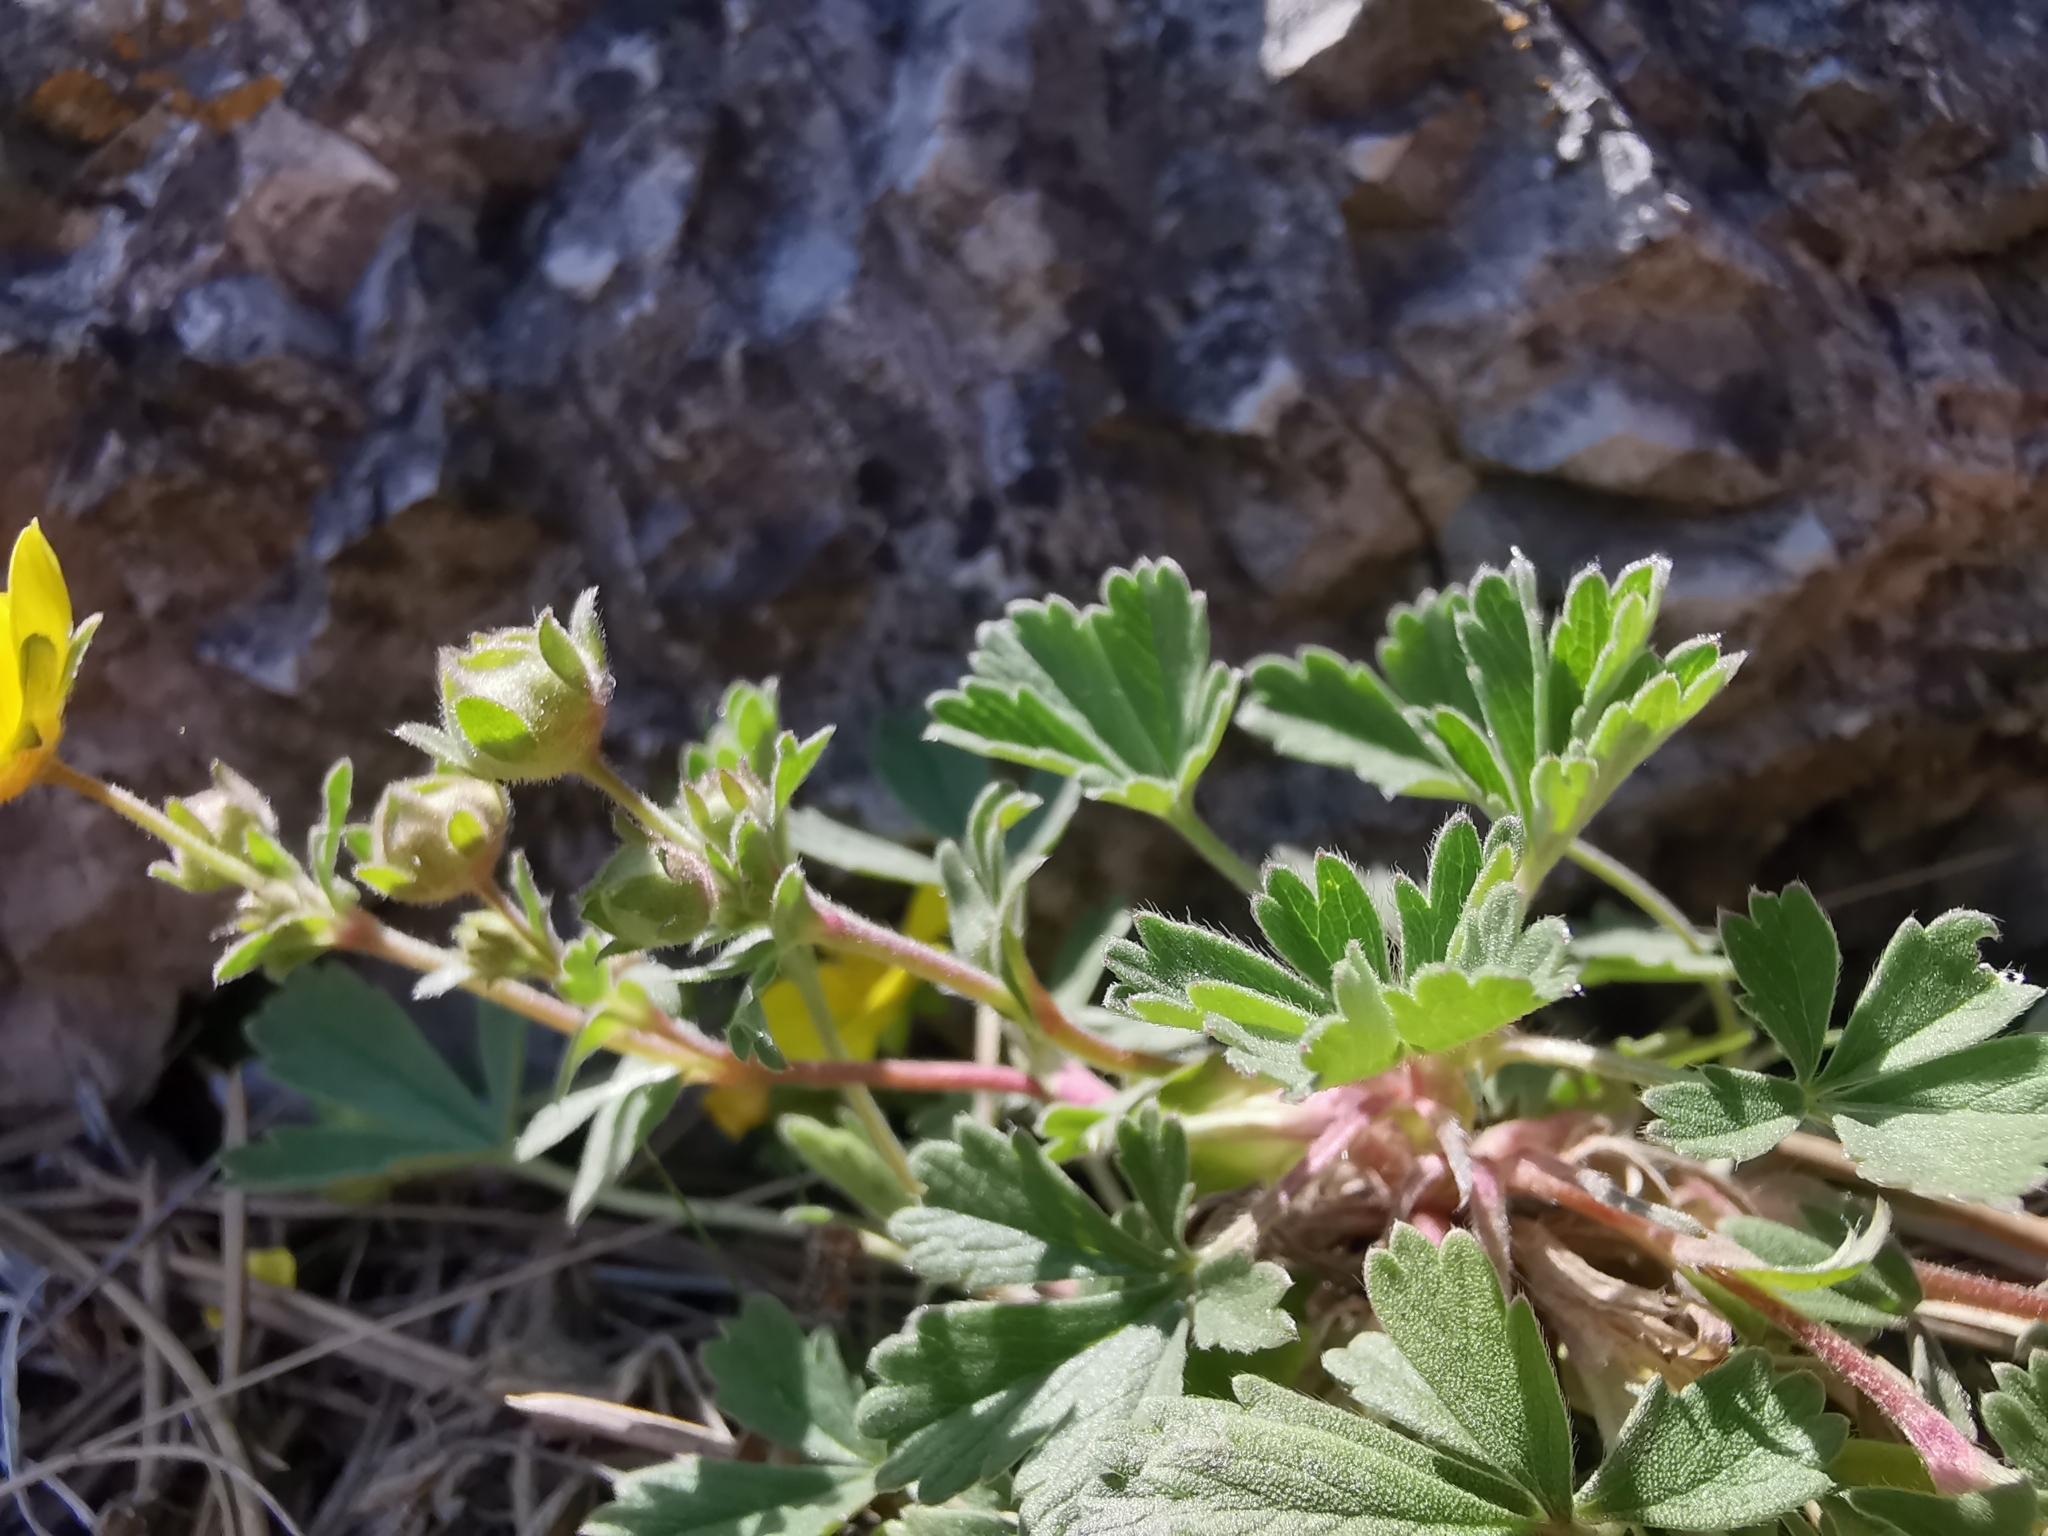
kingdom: Plantae
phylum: Tracheophyta
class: Magnoliopsida
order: Rosales
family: Rosaceae
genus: Potentilla
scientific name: Potentilla incana
